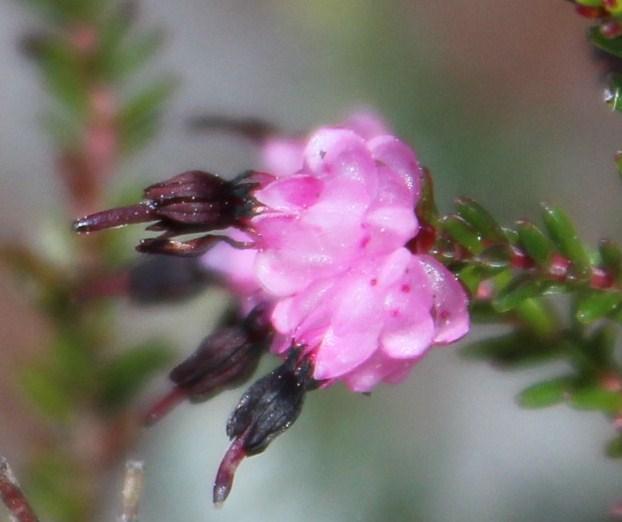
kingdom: Plantae
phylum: Tracheophyta
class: Magnoliopsida
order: Ericales
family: Ericaceae
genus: Erica
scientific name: Erica spumosa
